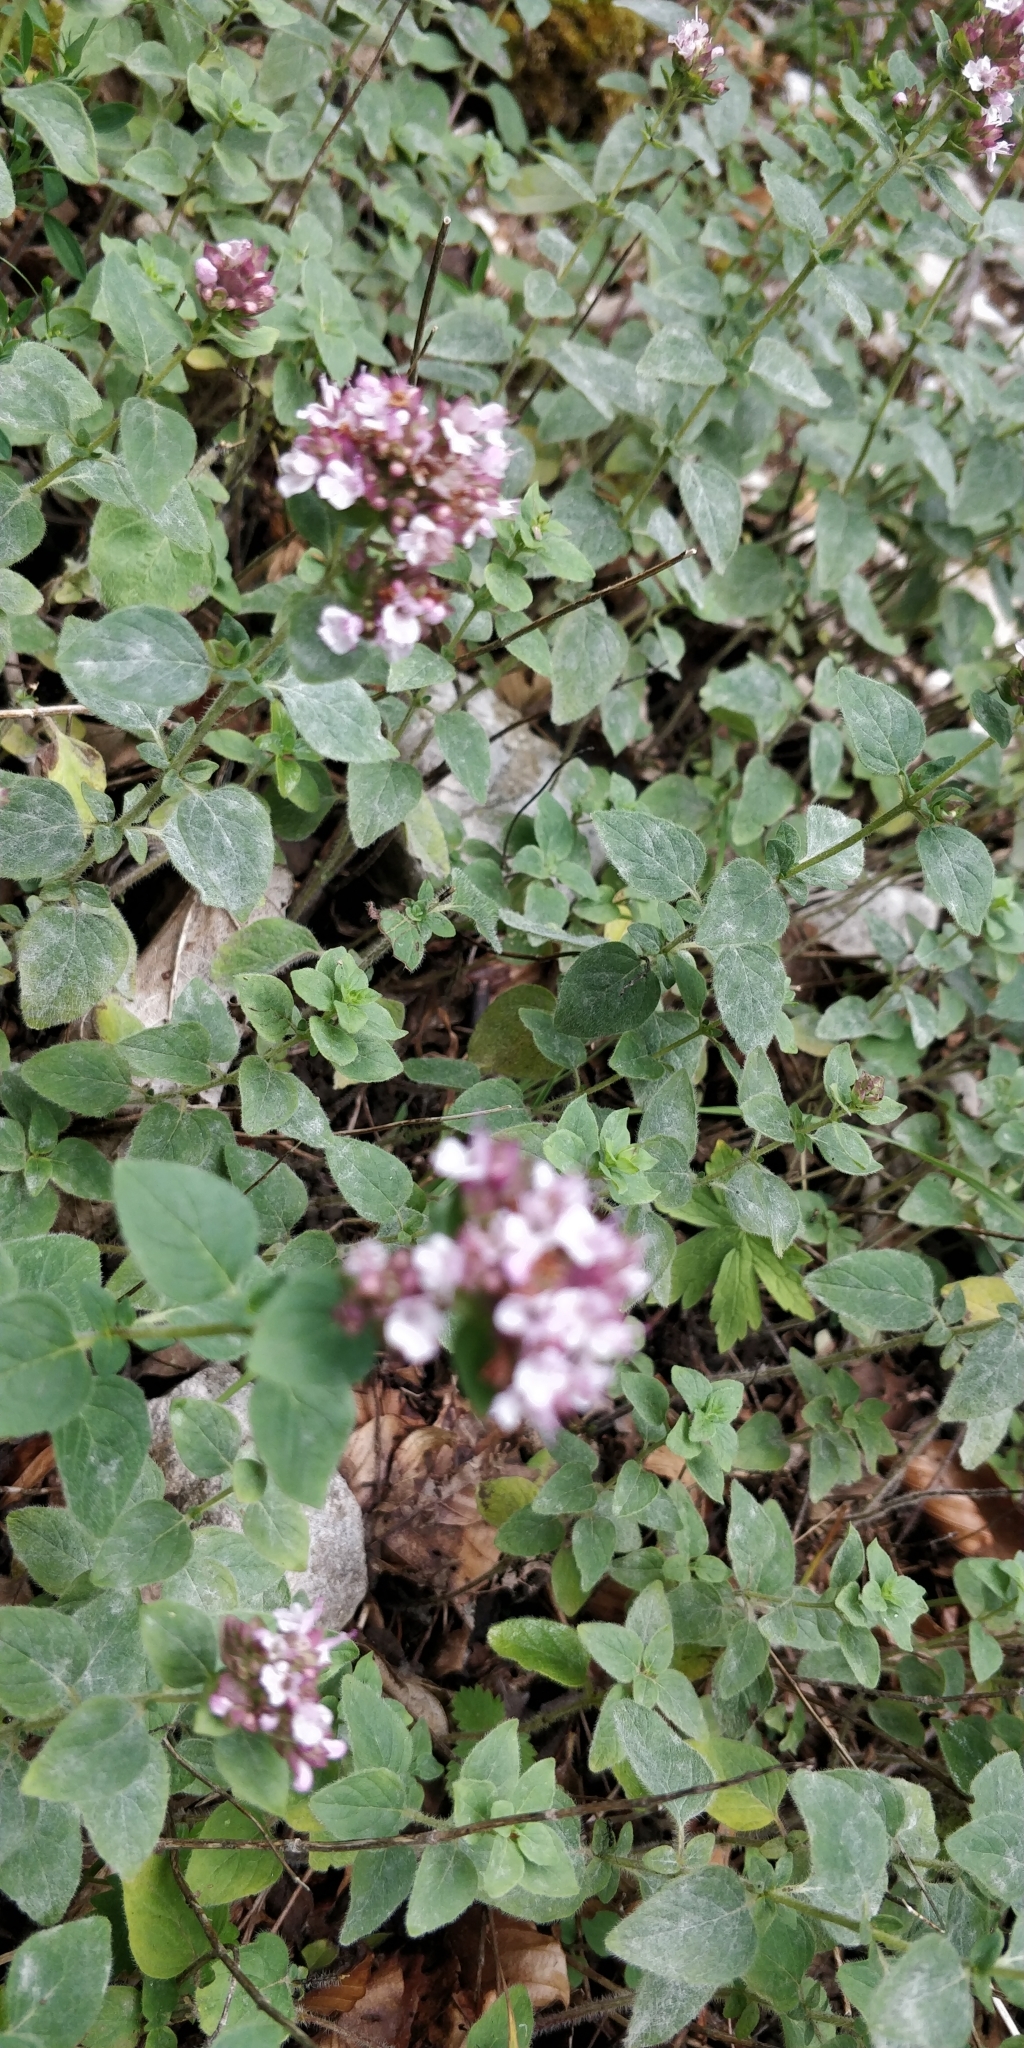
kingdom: Plantae
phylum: Tracheophyta
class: Magnoliopsida
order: Lamiales
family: Lamiaceae
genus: Origanum
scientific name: Origanum vulgare
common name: Wild marjoram
